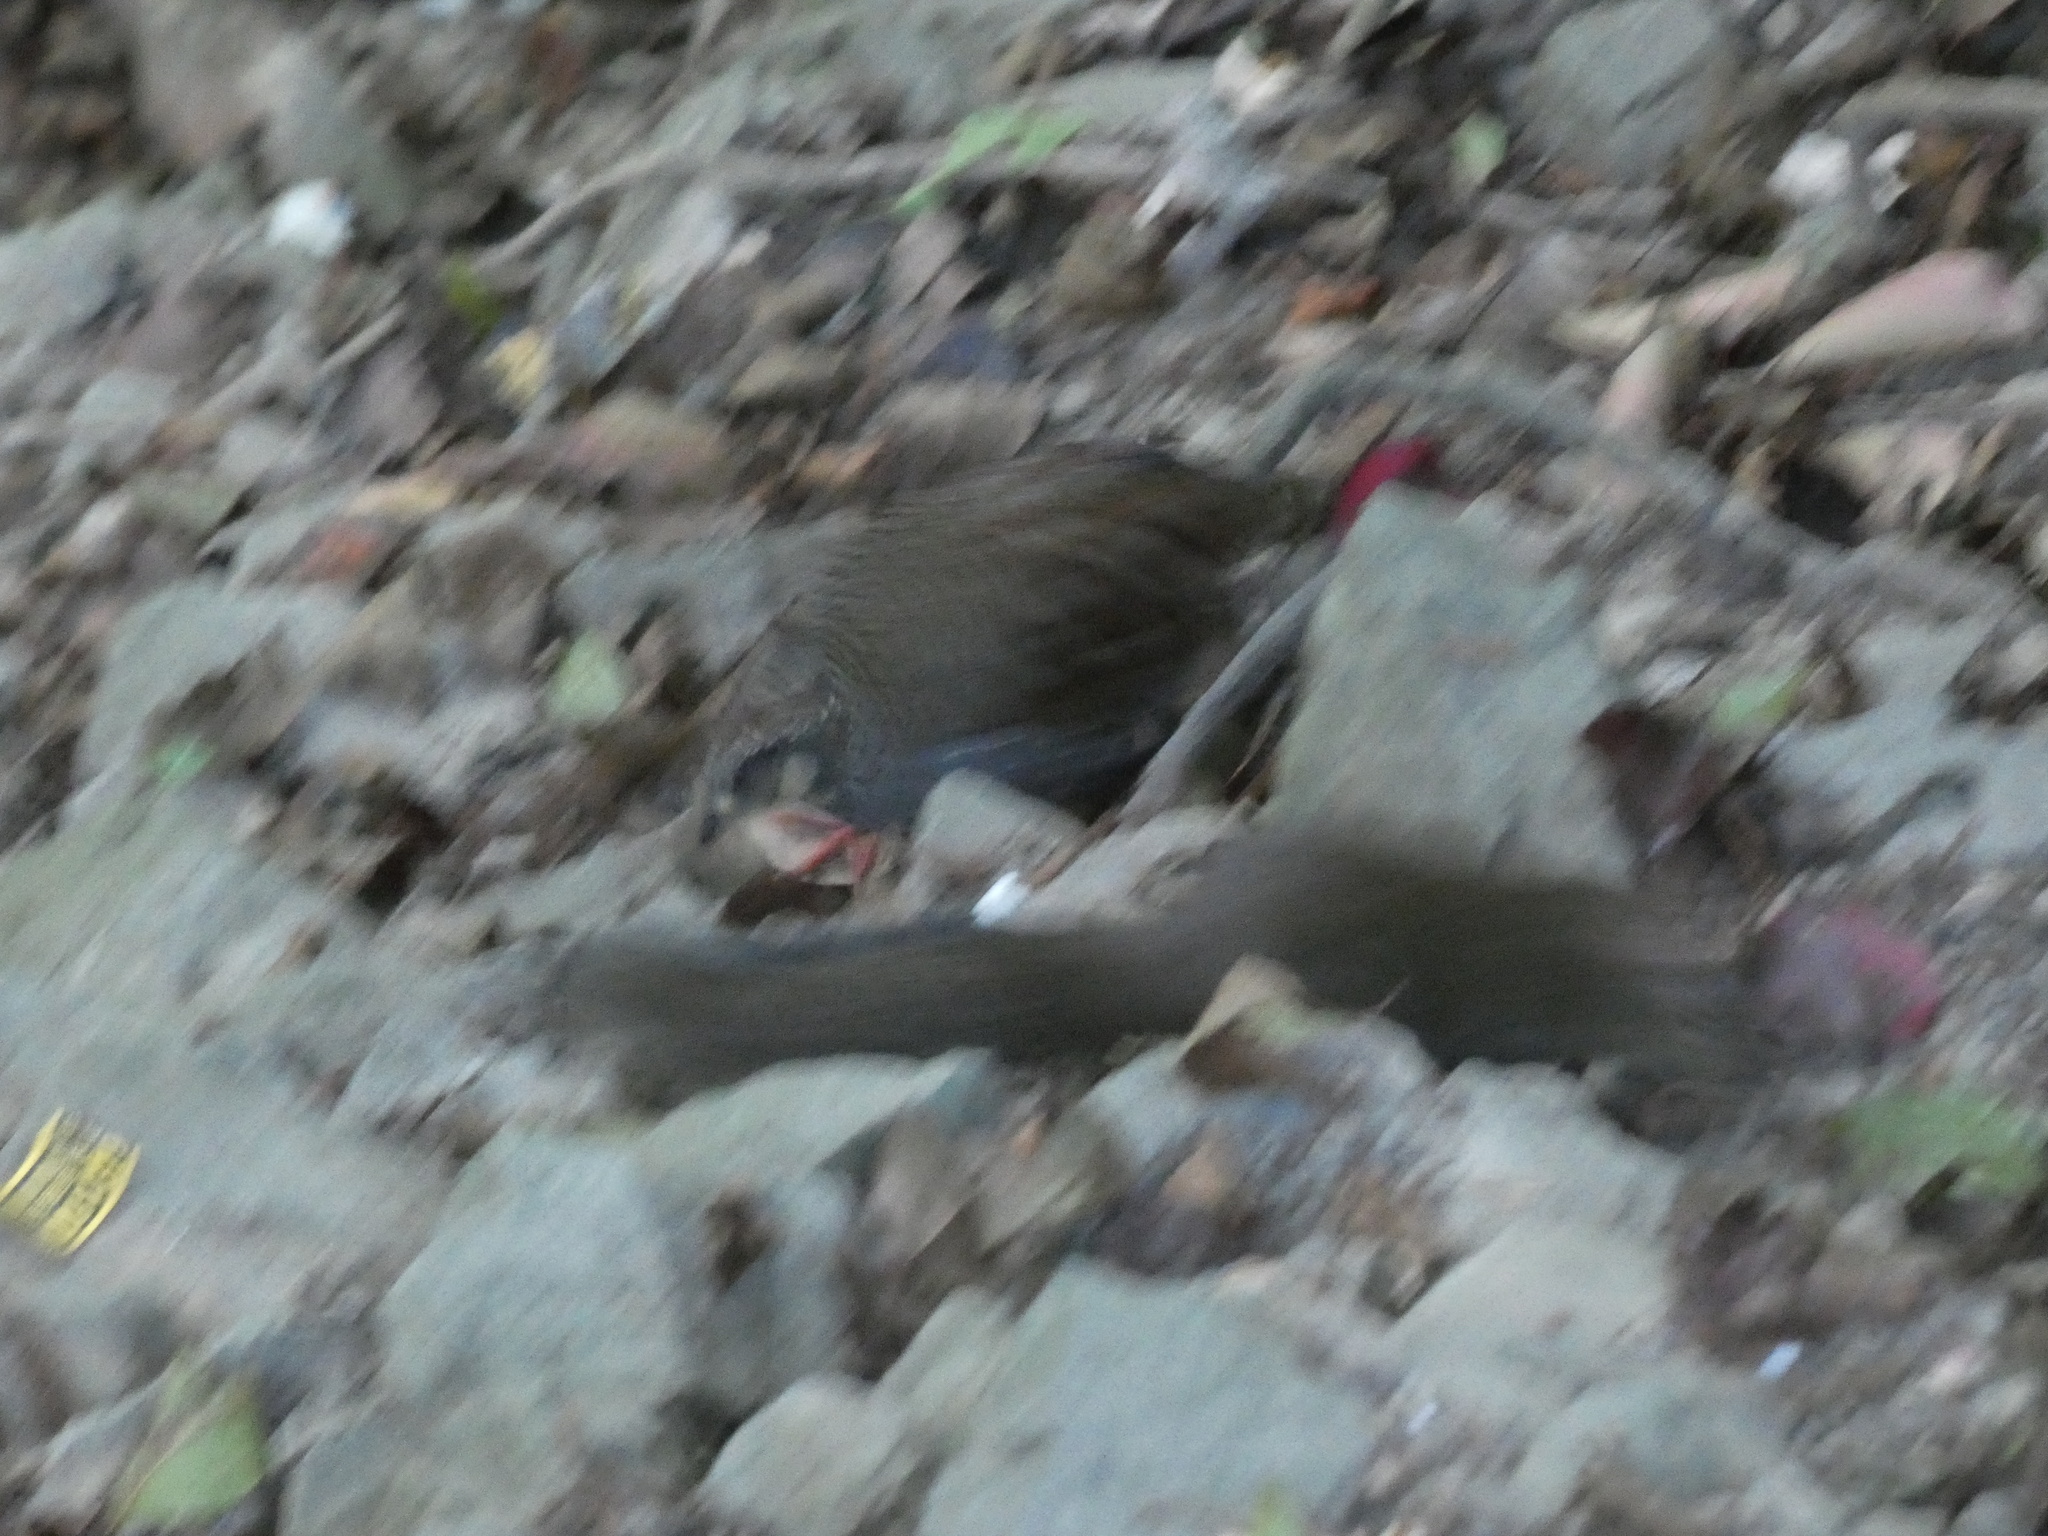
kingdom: Animalia
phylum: Chordata
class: Aves
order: Galliformes
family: Phasianidae
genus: Arborophila
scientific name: Arborophila crudigularis
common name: Taiwan partridge
